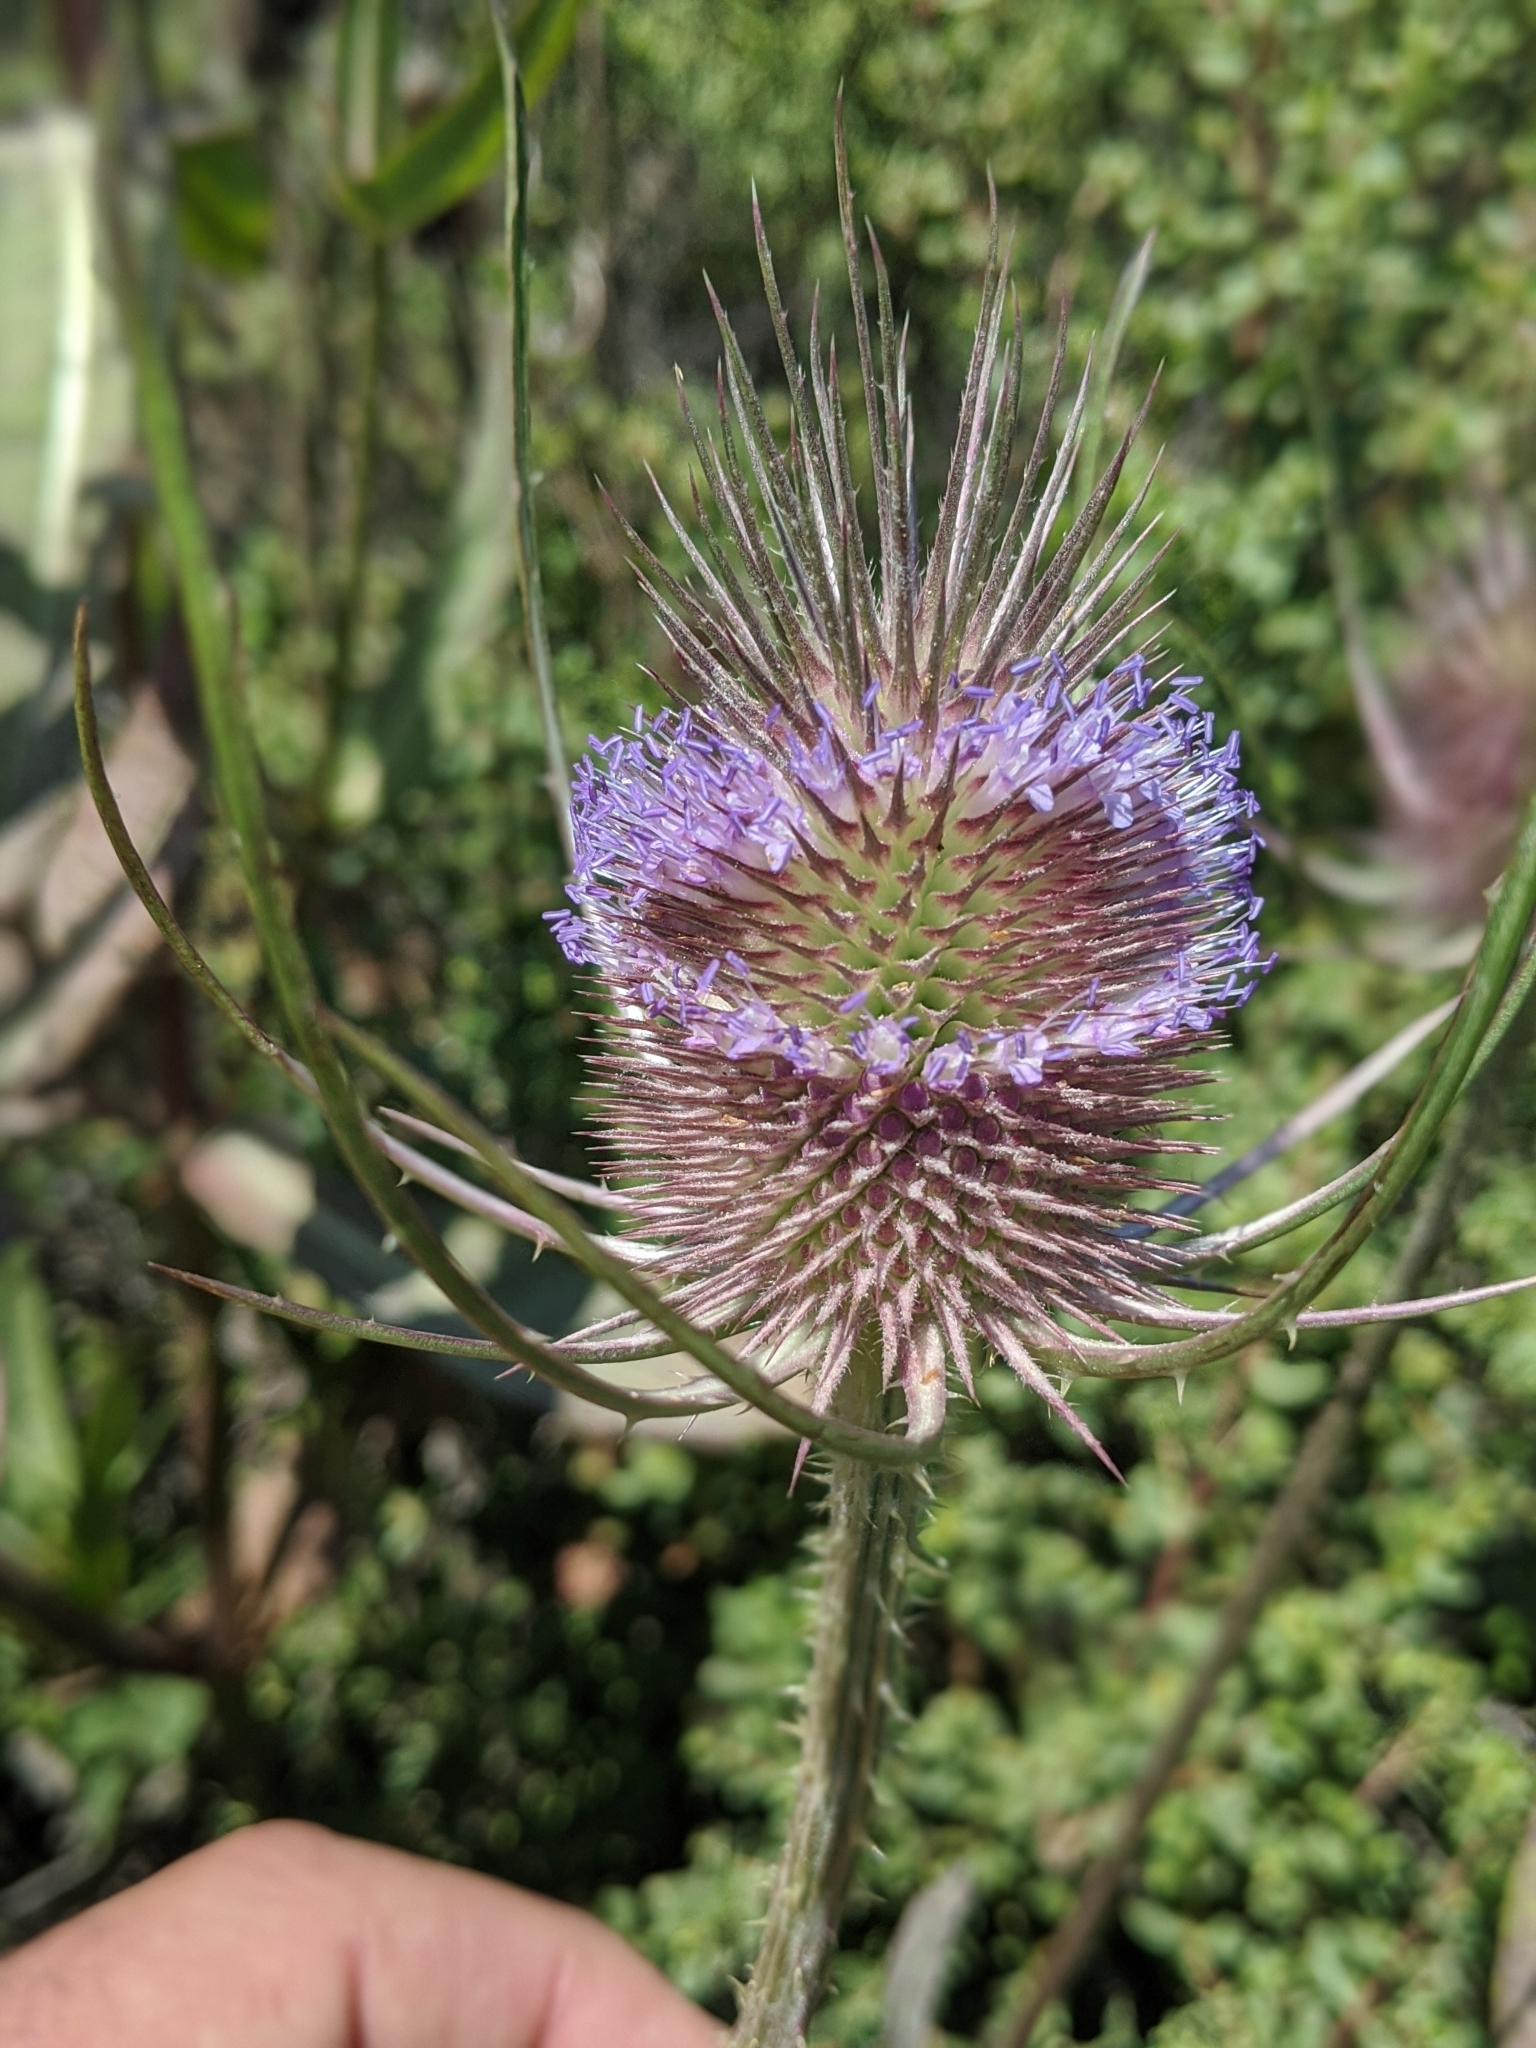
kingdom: Plantae
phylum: Tracheophyta
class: Magnoliopsida
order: Dipsacales
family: Caprifoliaceae
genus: Dipsacus
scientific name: Dipsacus fullonum
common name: Teasel
